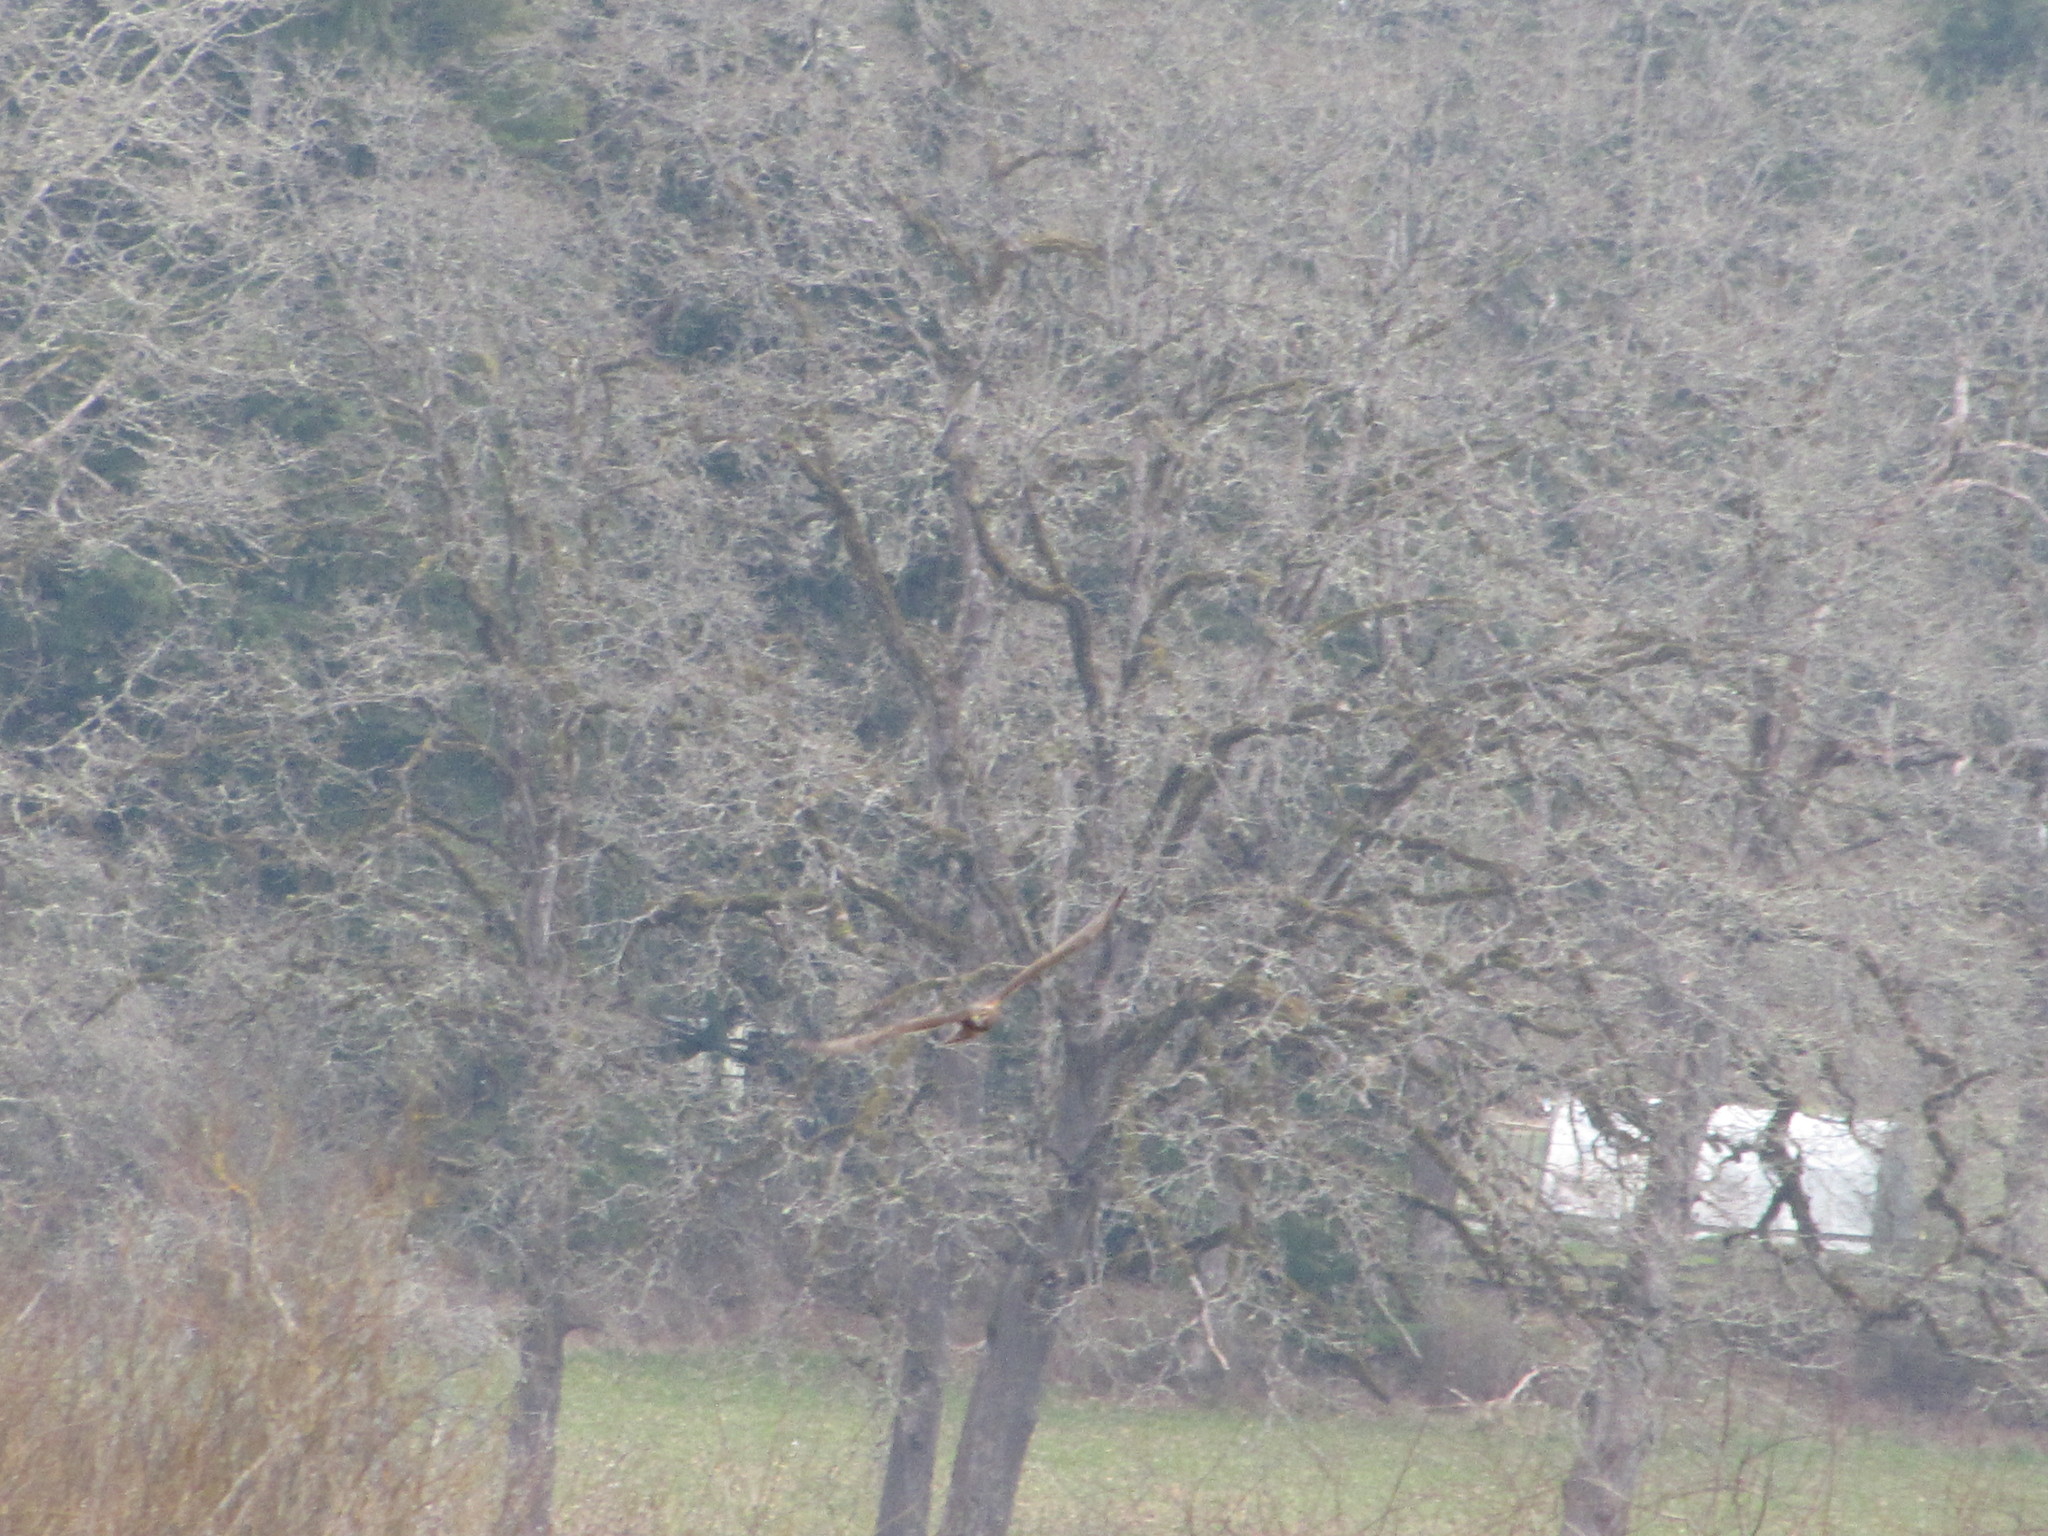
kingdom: Animalia
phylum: Chordata
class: Aves
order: Accipitriformes
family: Accipitridae
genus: Circus
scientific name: Circus cyaneus
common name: Hen harrier
